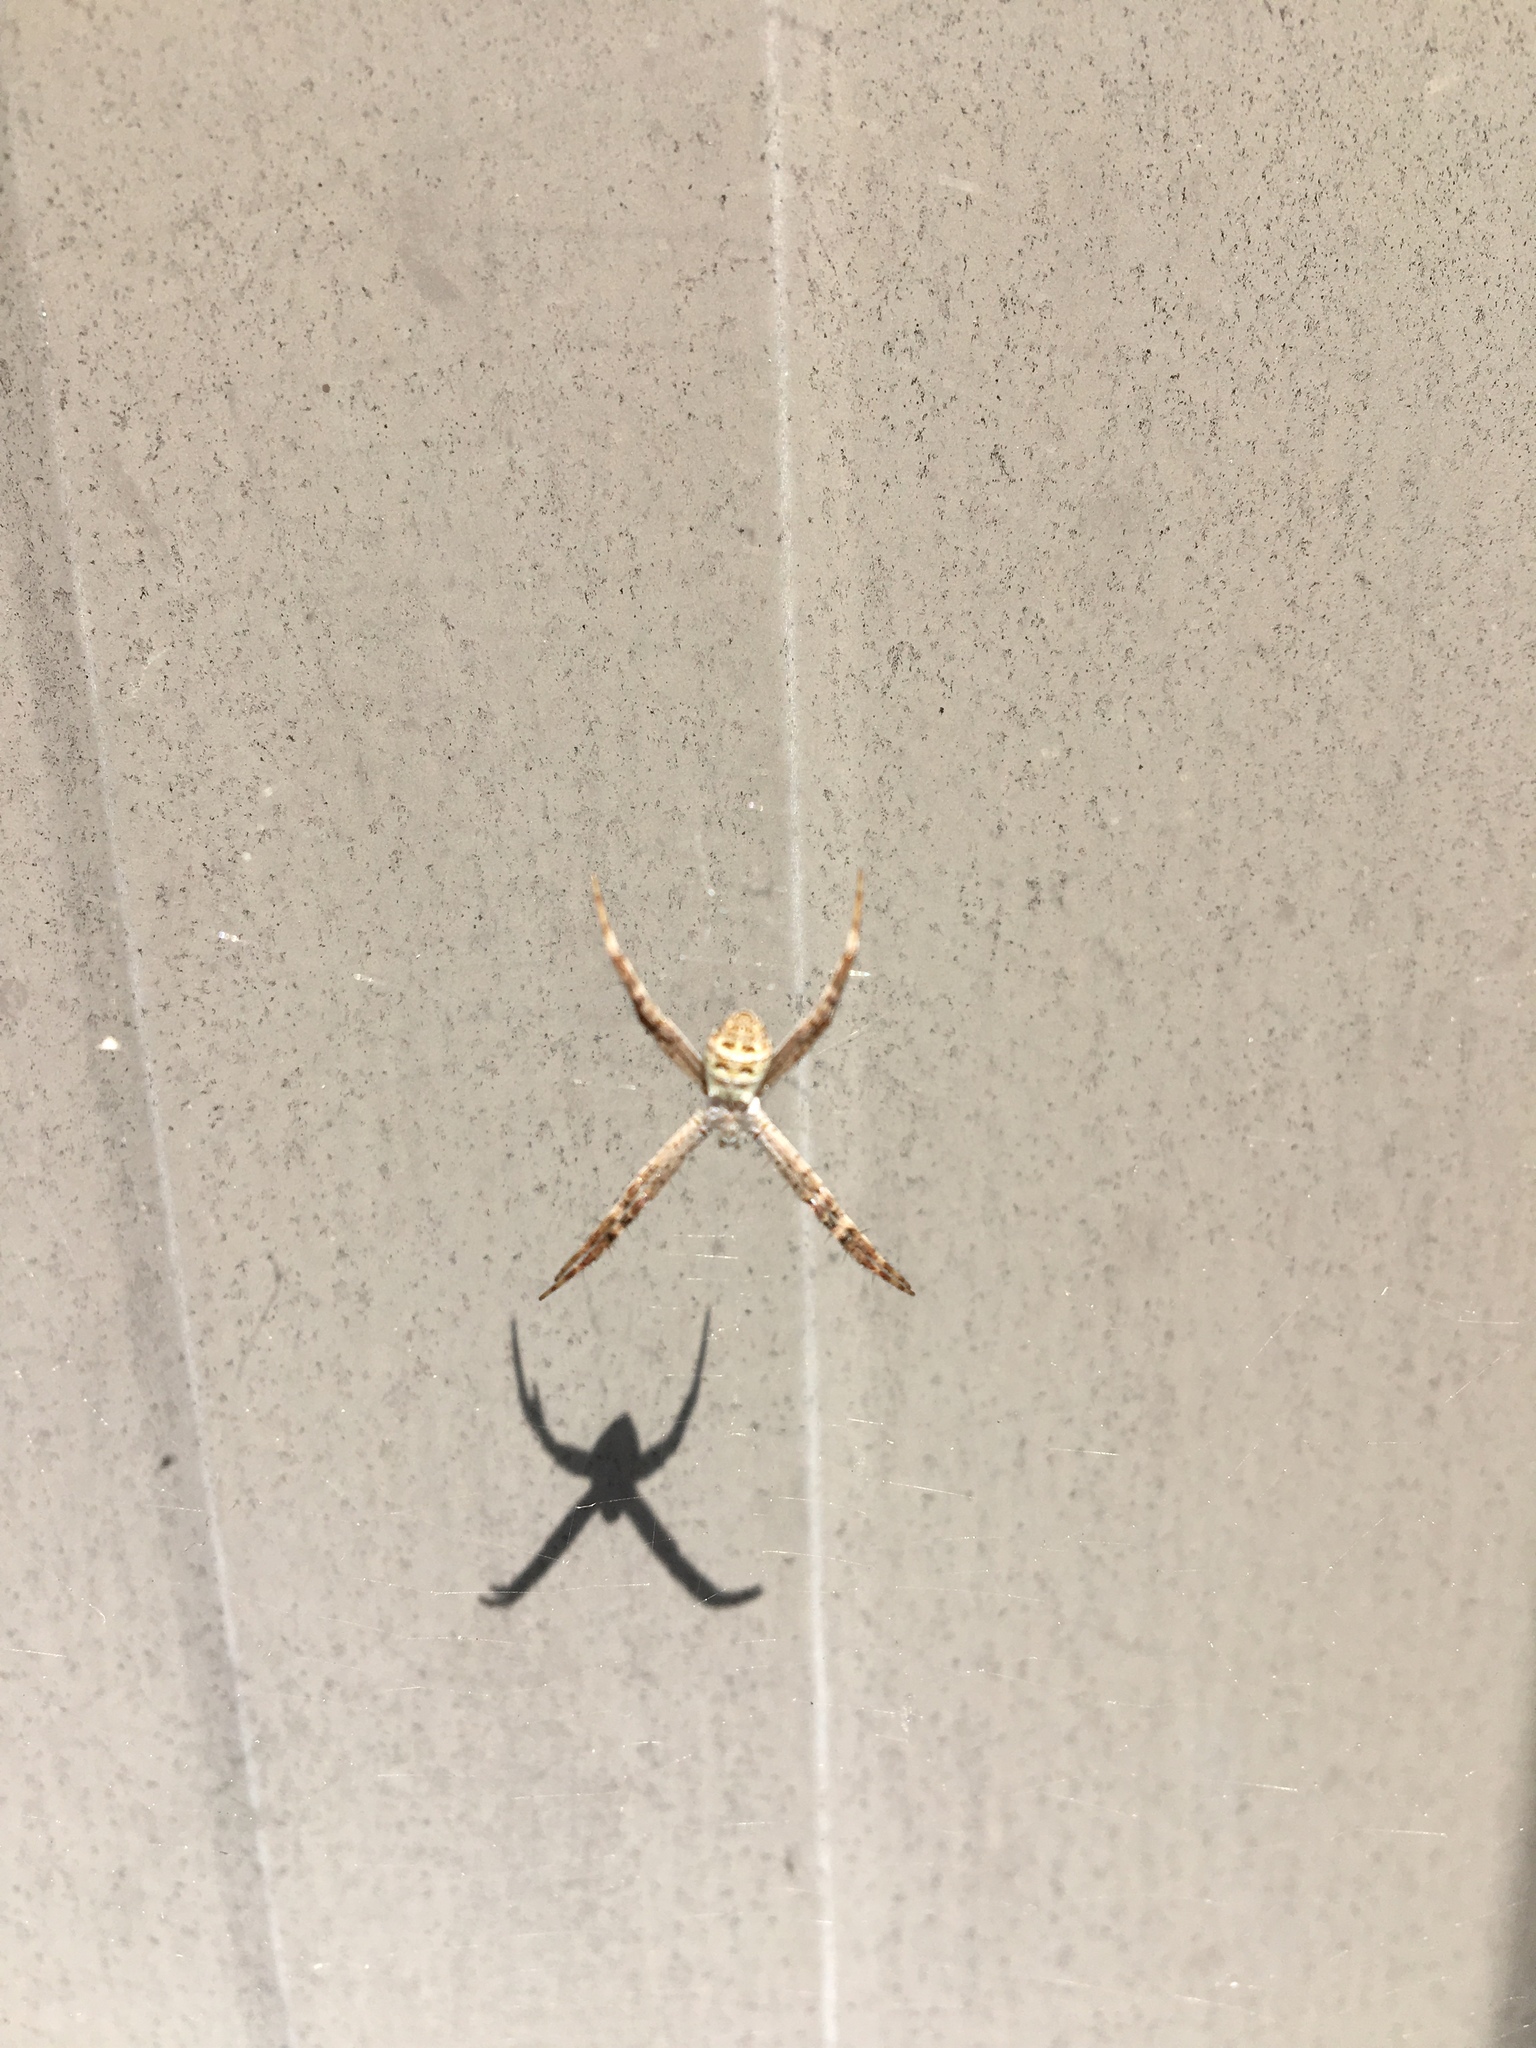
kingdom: Animalia
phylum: Arthropoda
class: Arachnida
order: Araneae
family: Araneidae
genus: Argiope
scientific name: Argiope keyserlingi
